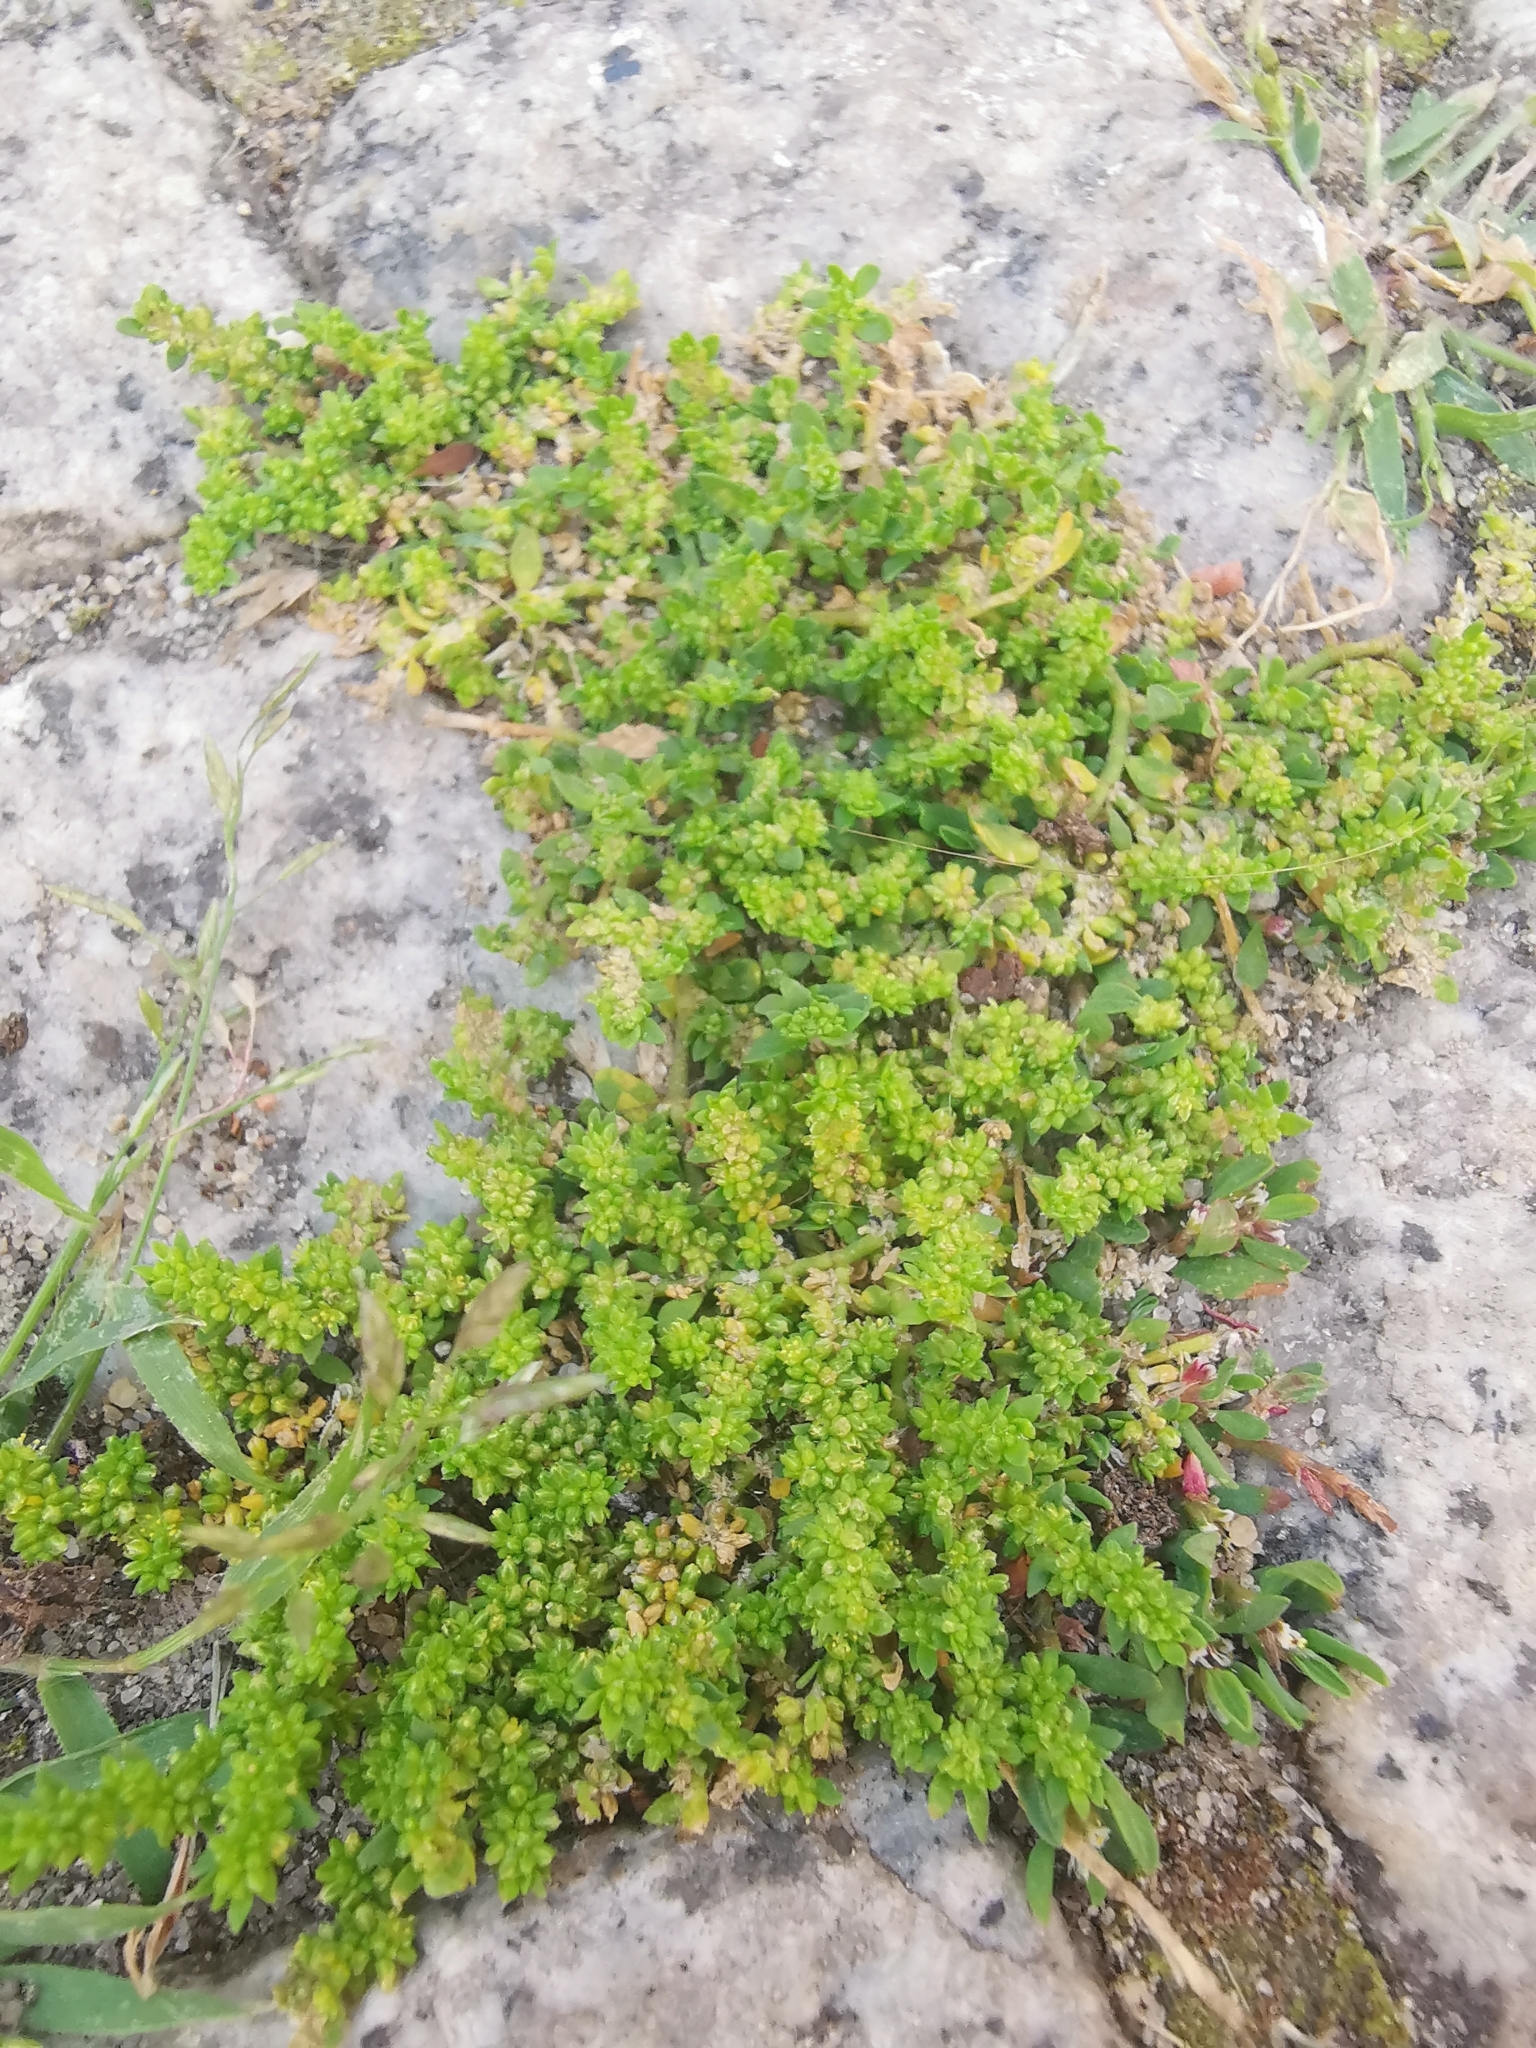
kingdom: Plantae
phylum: Tracheophyta
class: Magnoliopsida
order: Caryophyllales
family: Caryophyllaceae
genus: Herniaria
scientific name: Herniaria glabra
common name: Smooth rupturewort
